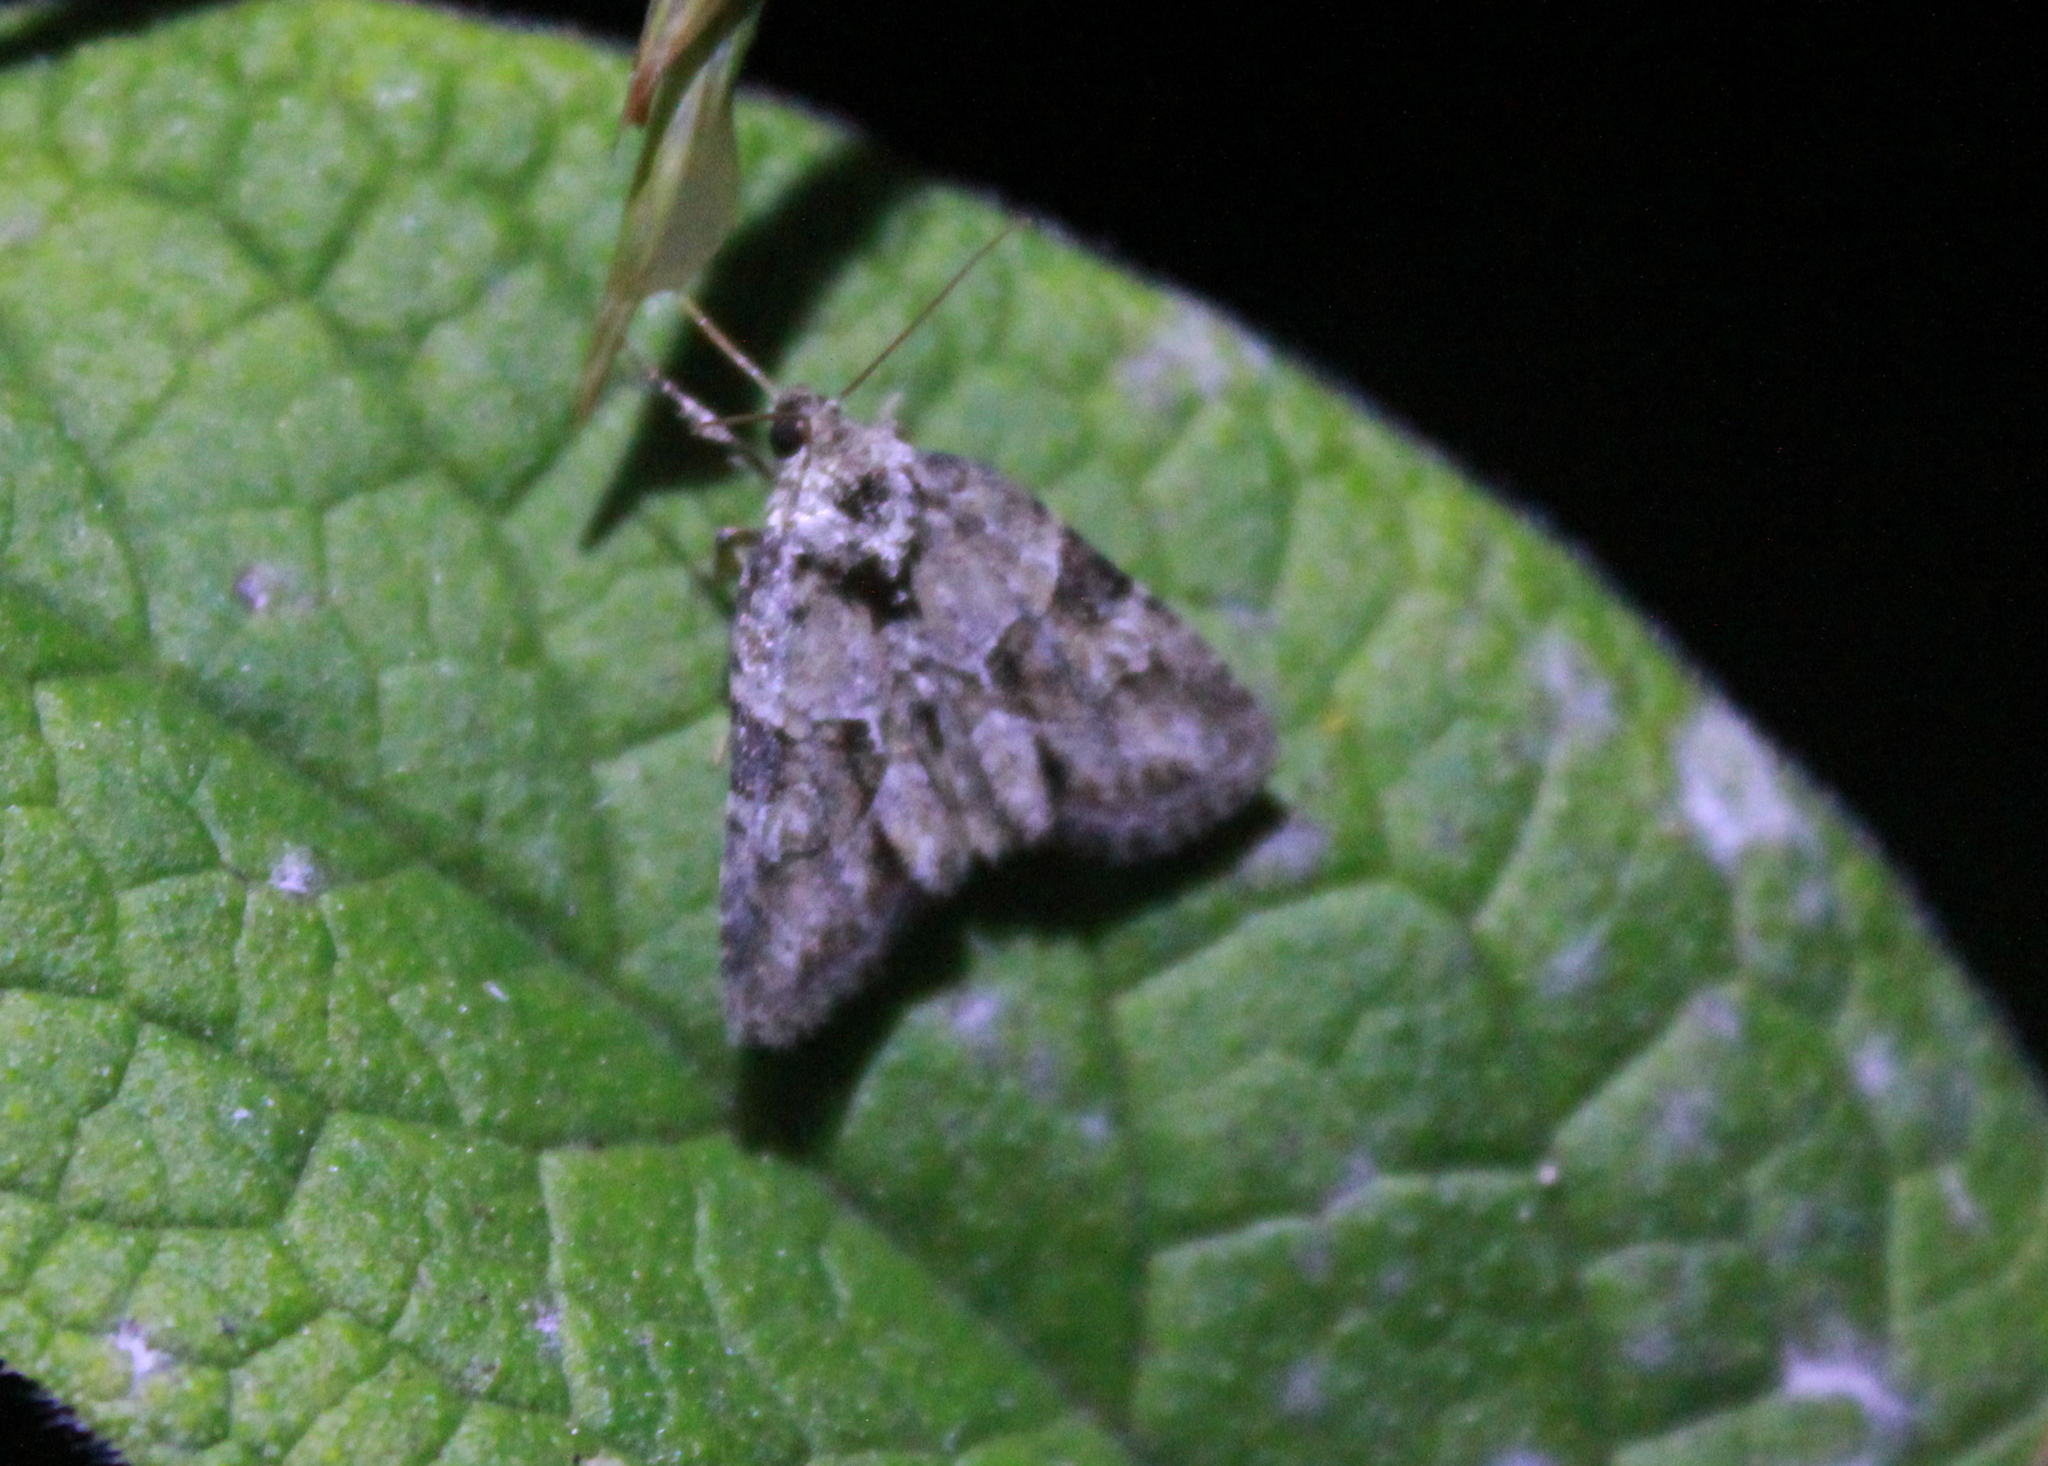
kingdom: Animalia
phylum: Arthropoda
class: Insecta
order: Lepidoptera
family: Noctuidae
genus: Neoligia
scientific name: Neoligia exhausta
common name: Exhausted brocade
